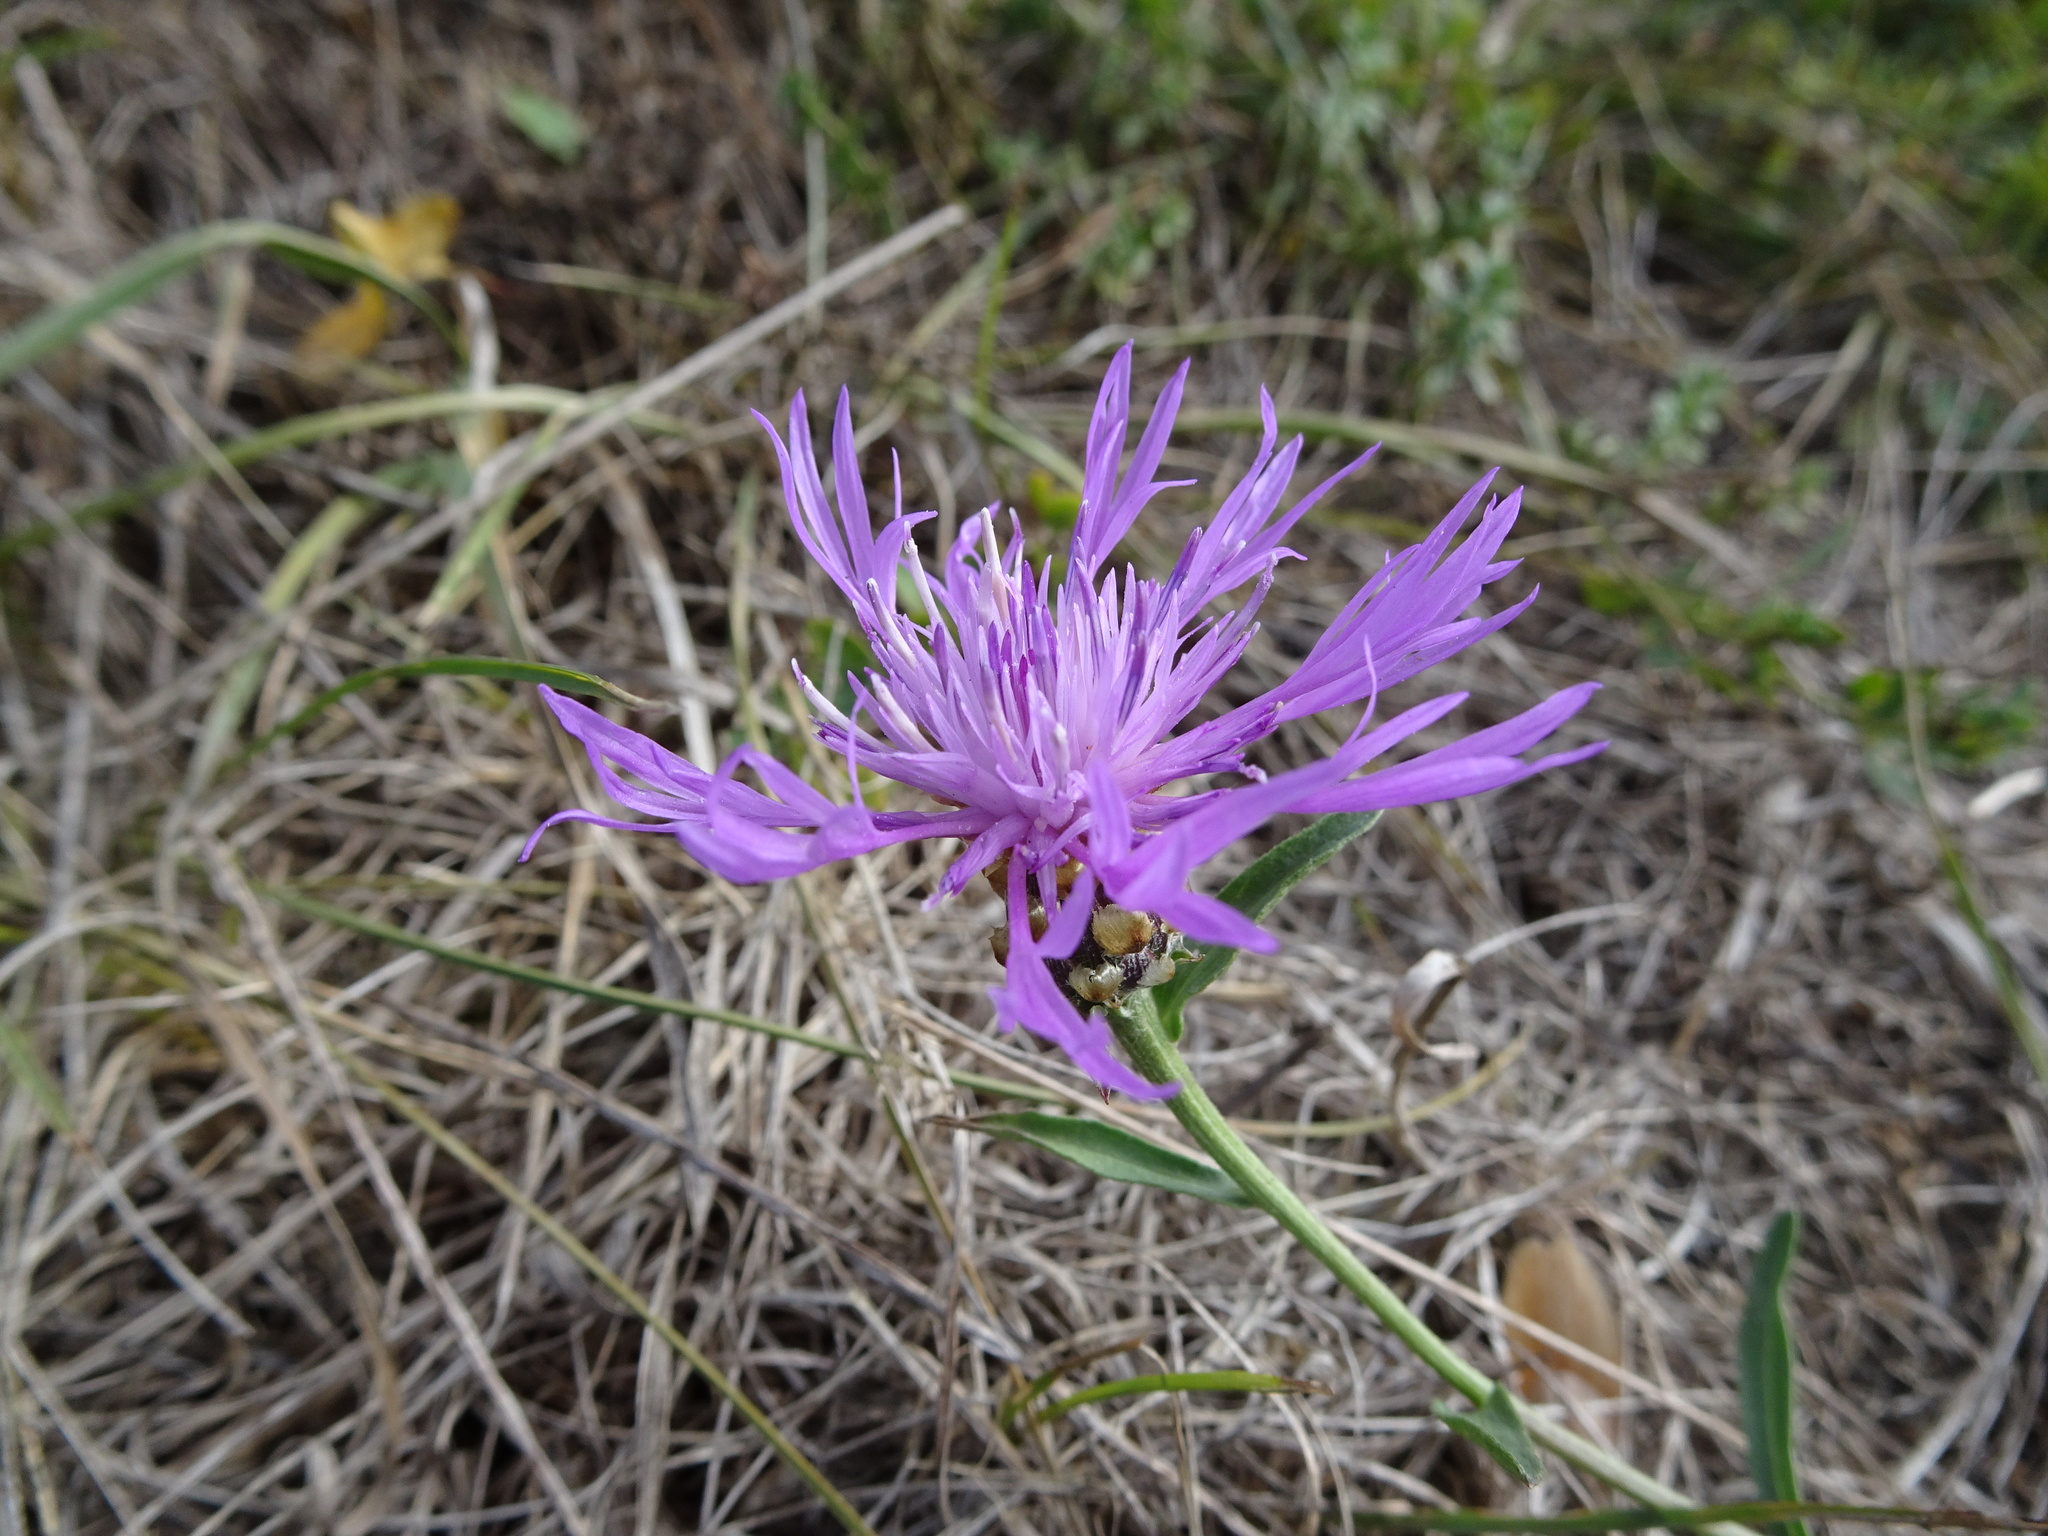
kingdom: Plantae
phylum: Tracheophyta
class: Magnoliopsida
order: Asterales
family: Asteraceae
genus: Centaurea
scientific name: Centaurea jacea
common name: Brown knapweed
